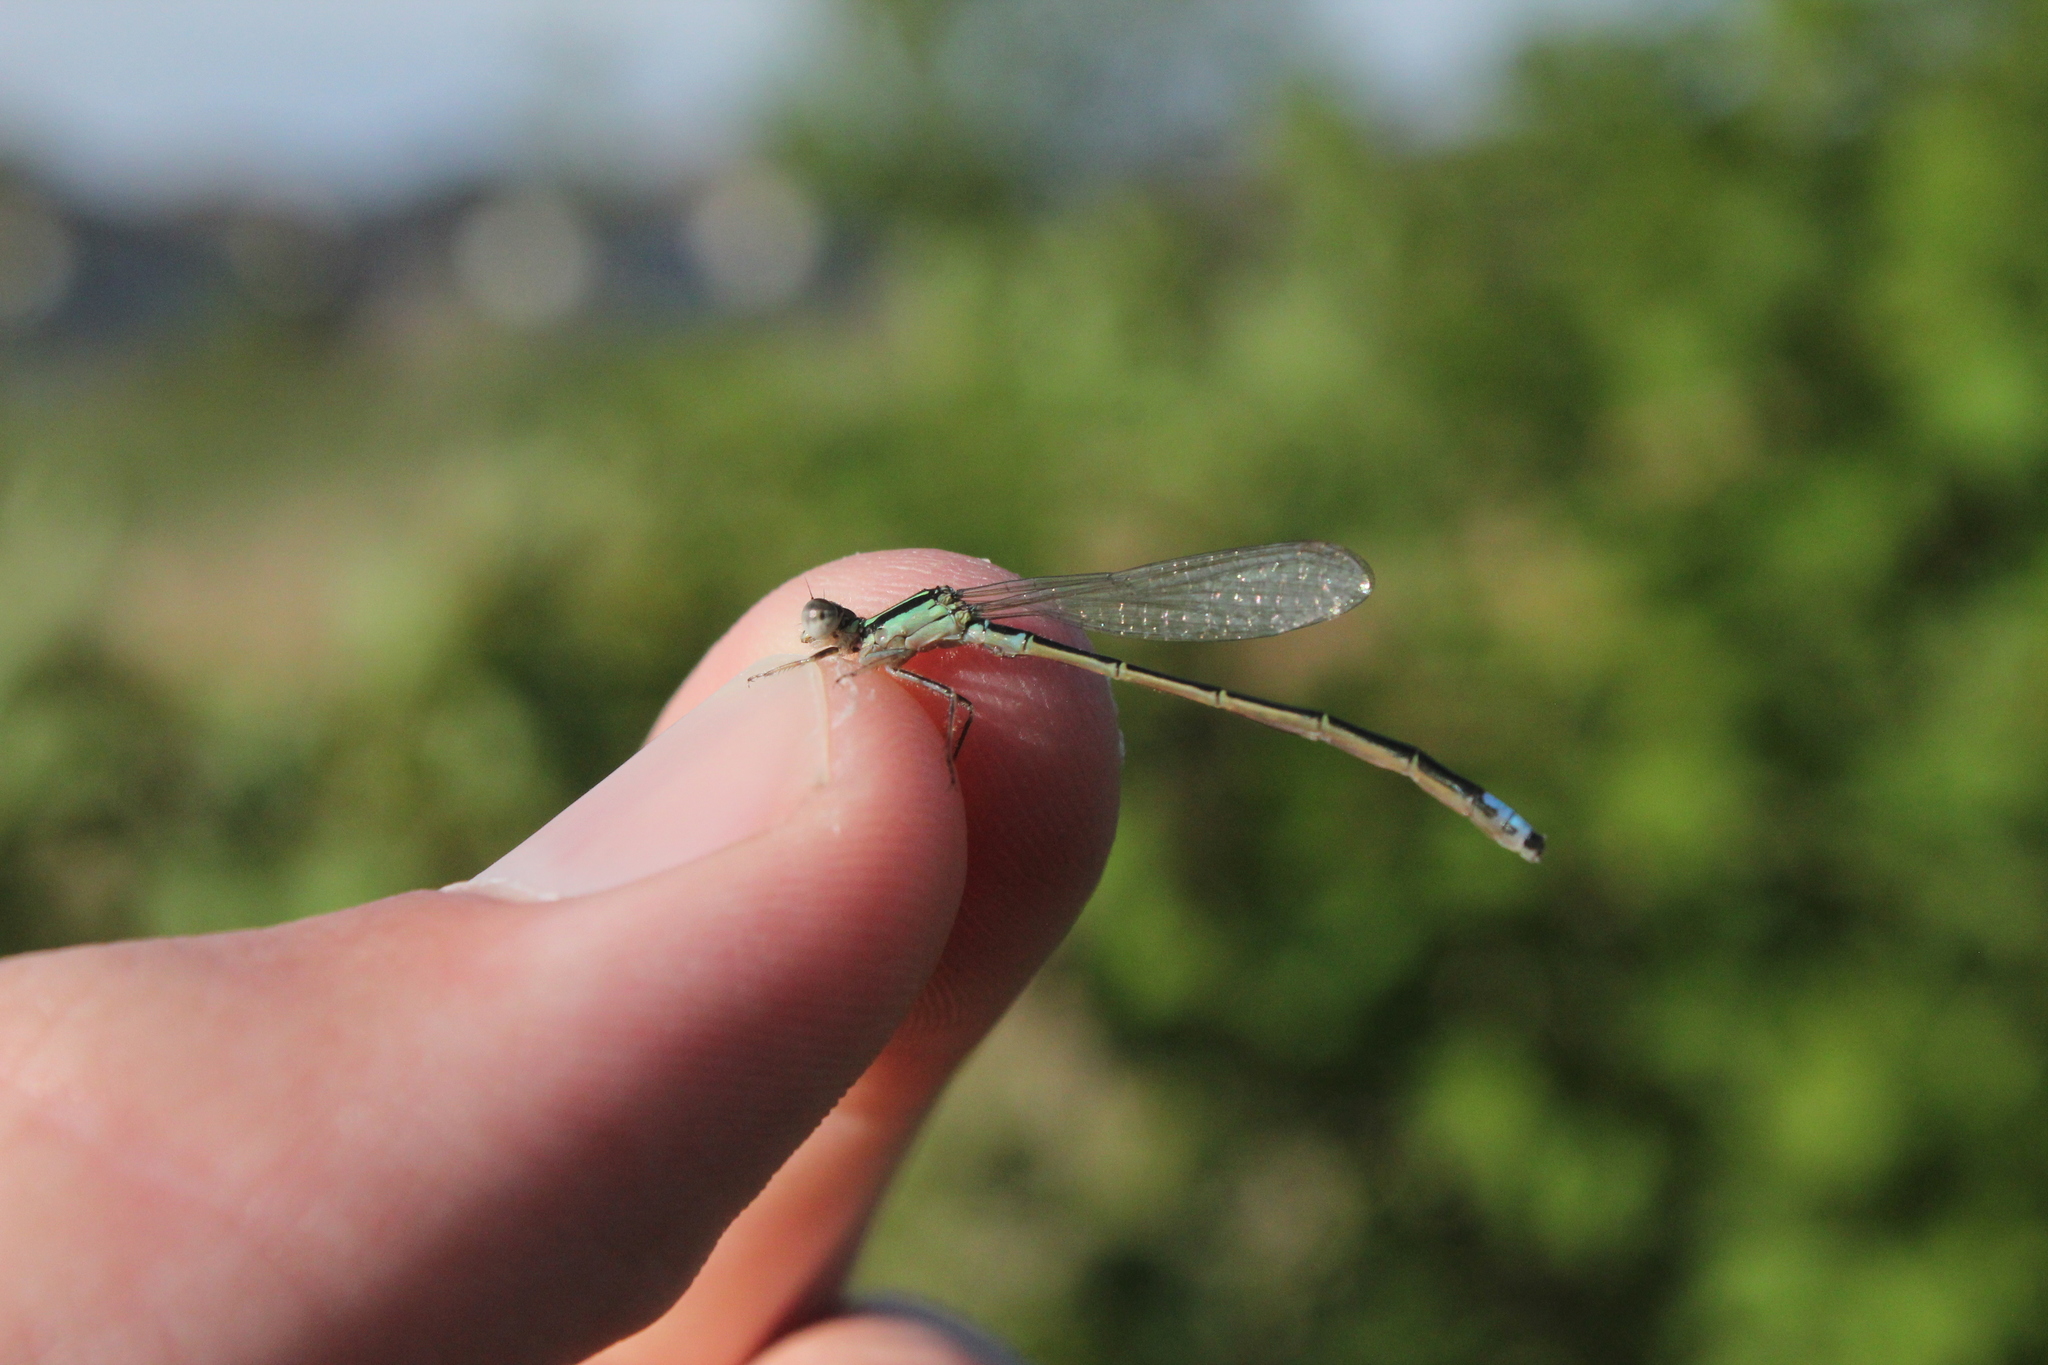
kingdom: Animalia
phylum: Arthropoda
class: Insecta
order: Odonata
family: Coenagrionidae
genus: Ischnura
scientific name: Ischnura verticalis
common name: Eastern forktail
